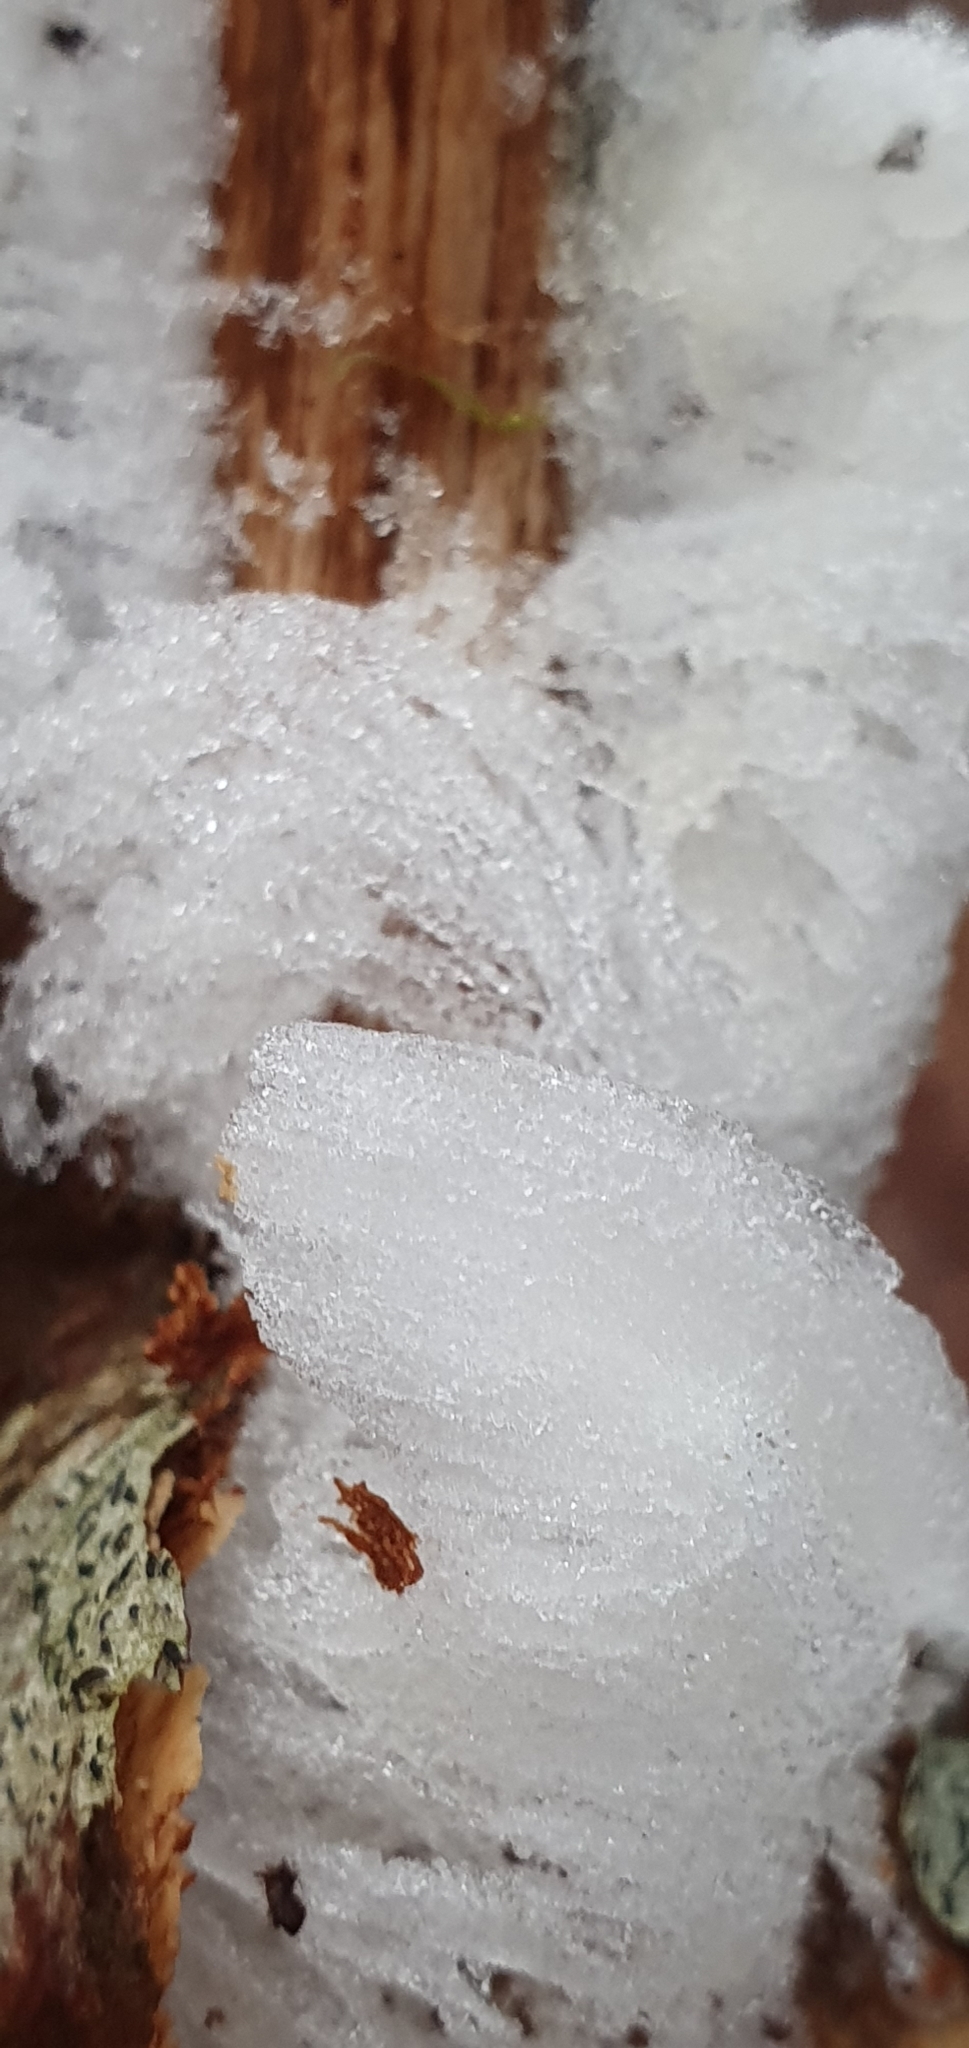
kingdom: Fungi
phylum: Basidiomycota
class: Agaricomycetes
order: Auriculariales
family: Auriculariaceae
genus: Exidiopsis
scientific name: Exidiopsis effusa
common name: Hair ice crust
